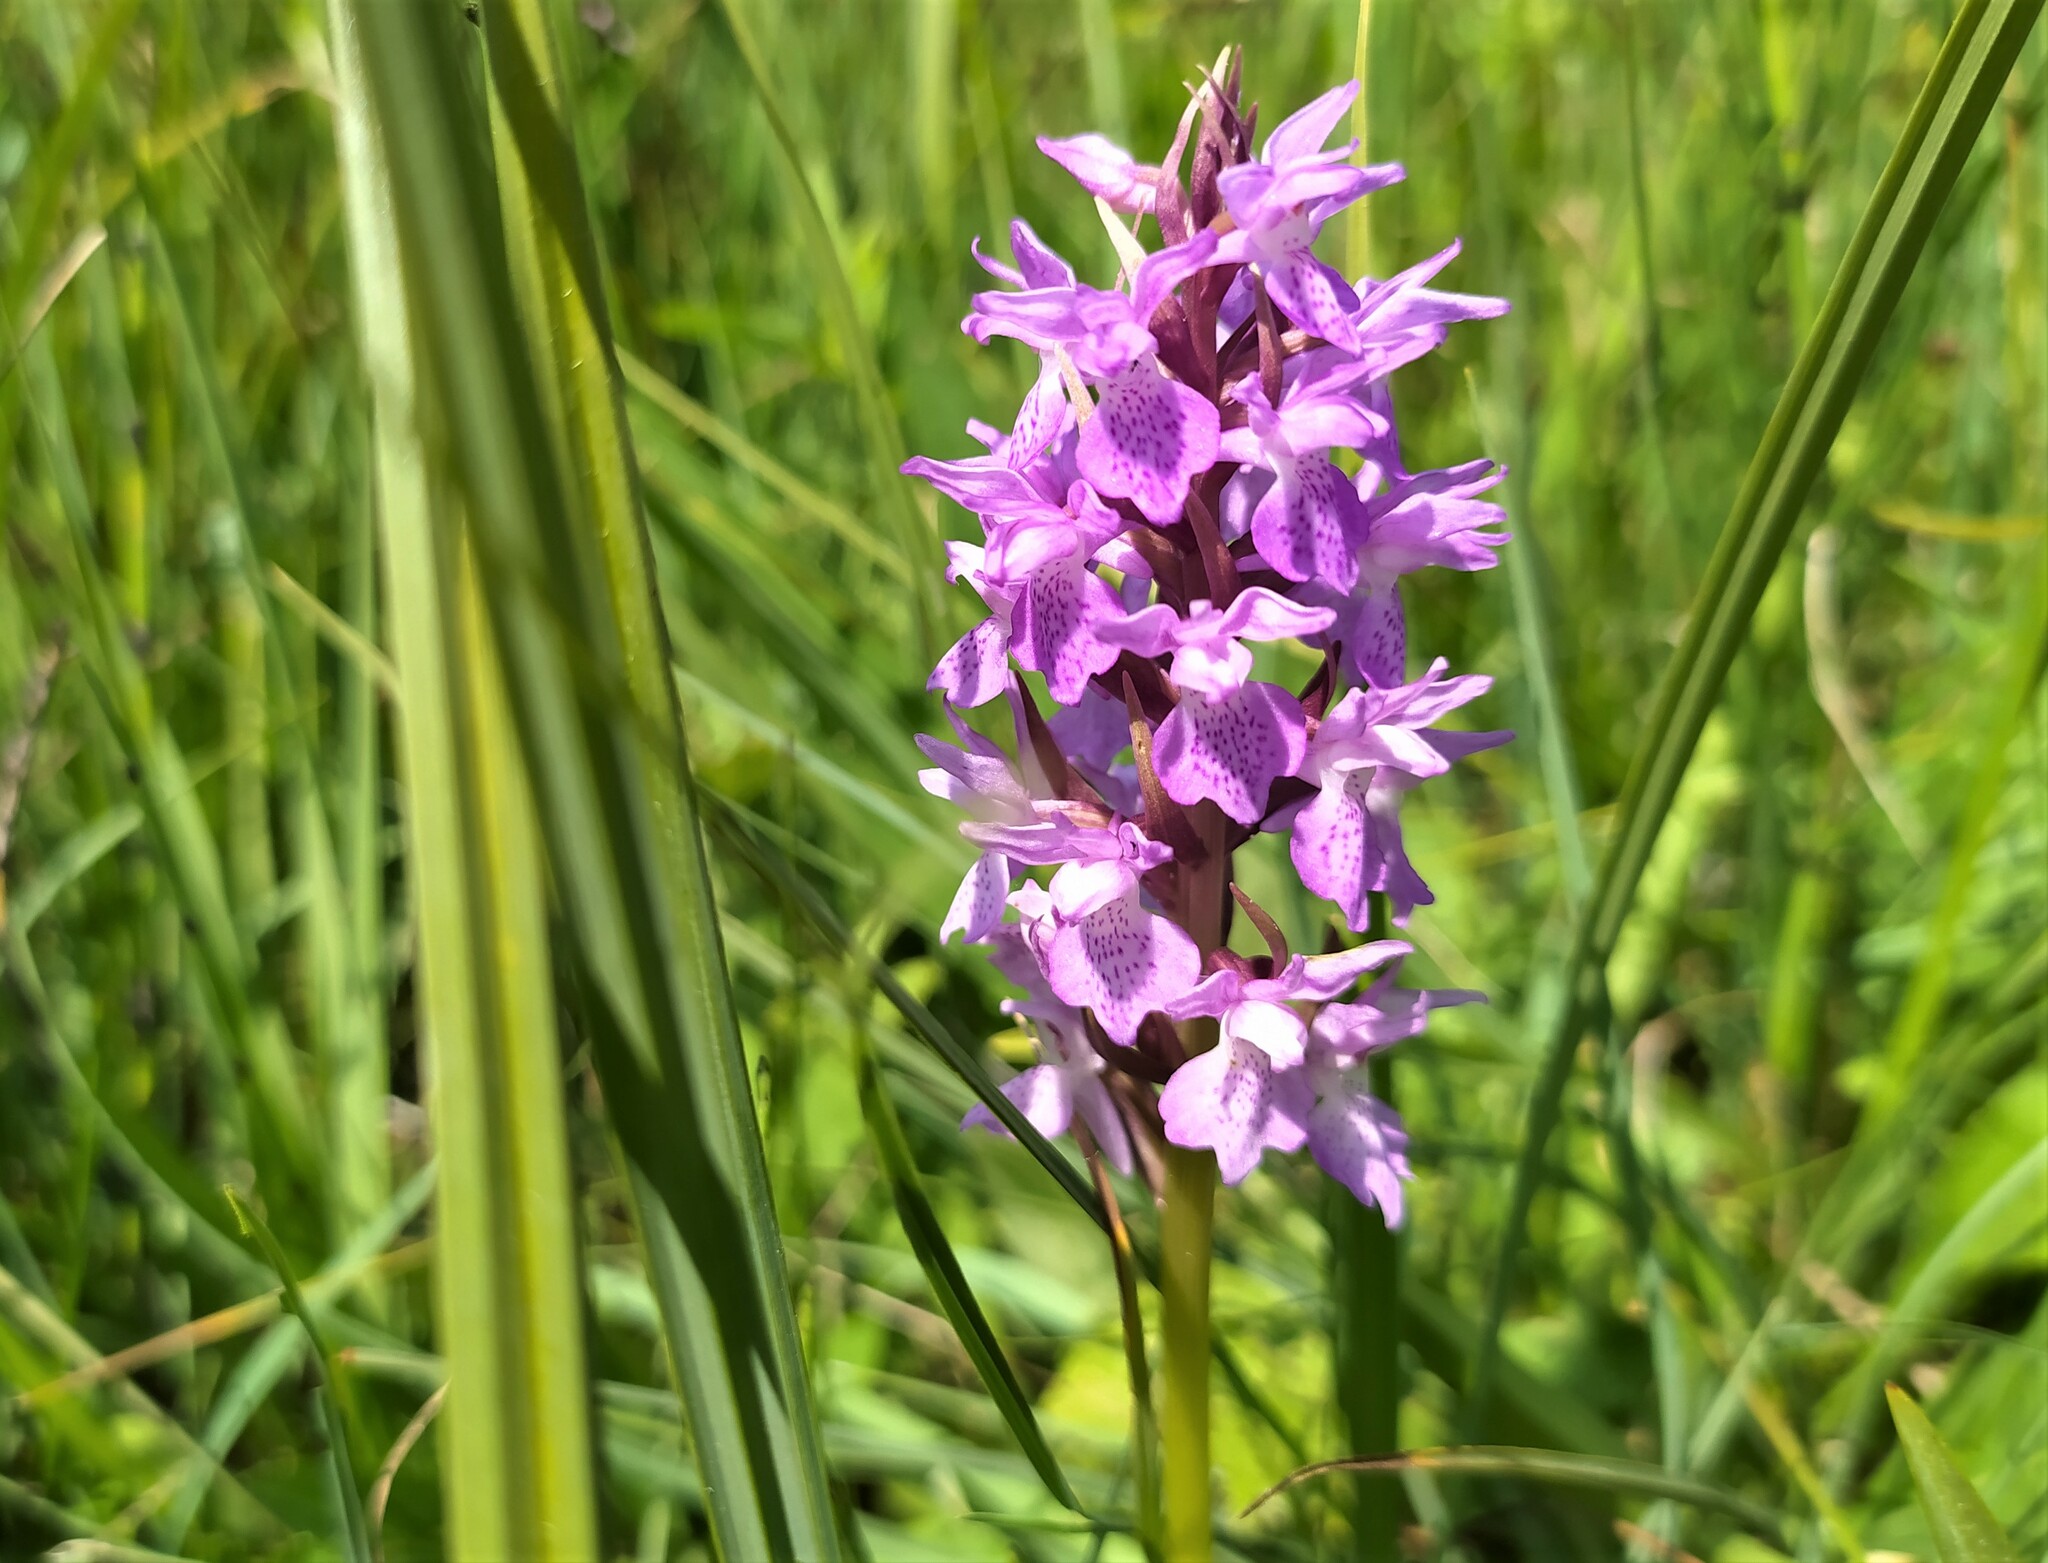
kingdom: Plantae
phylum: Tracheophyta
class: Liliopsida
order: Asparagales
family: Orchidaceae
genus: Dactylorhiza
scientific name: Dactylorhiza maculata
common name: Heath spotted-orchid
